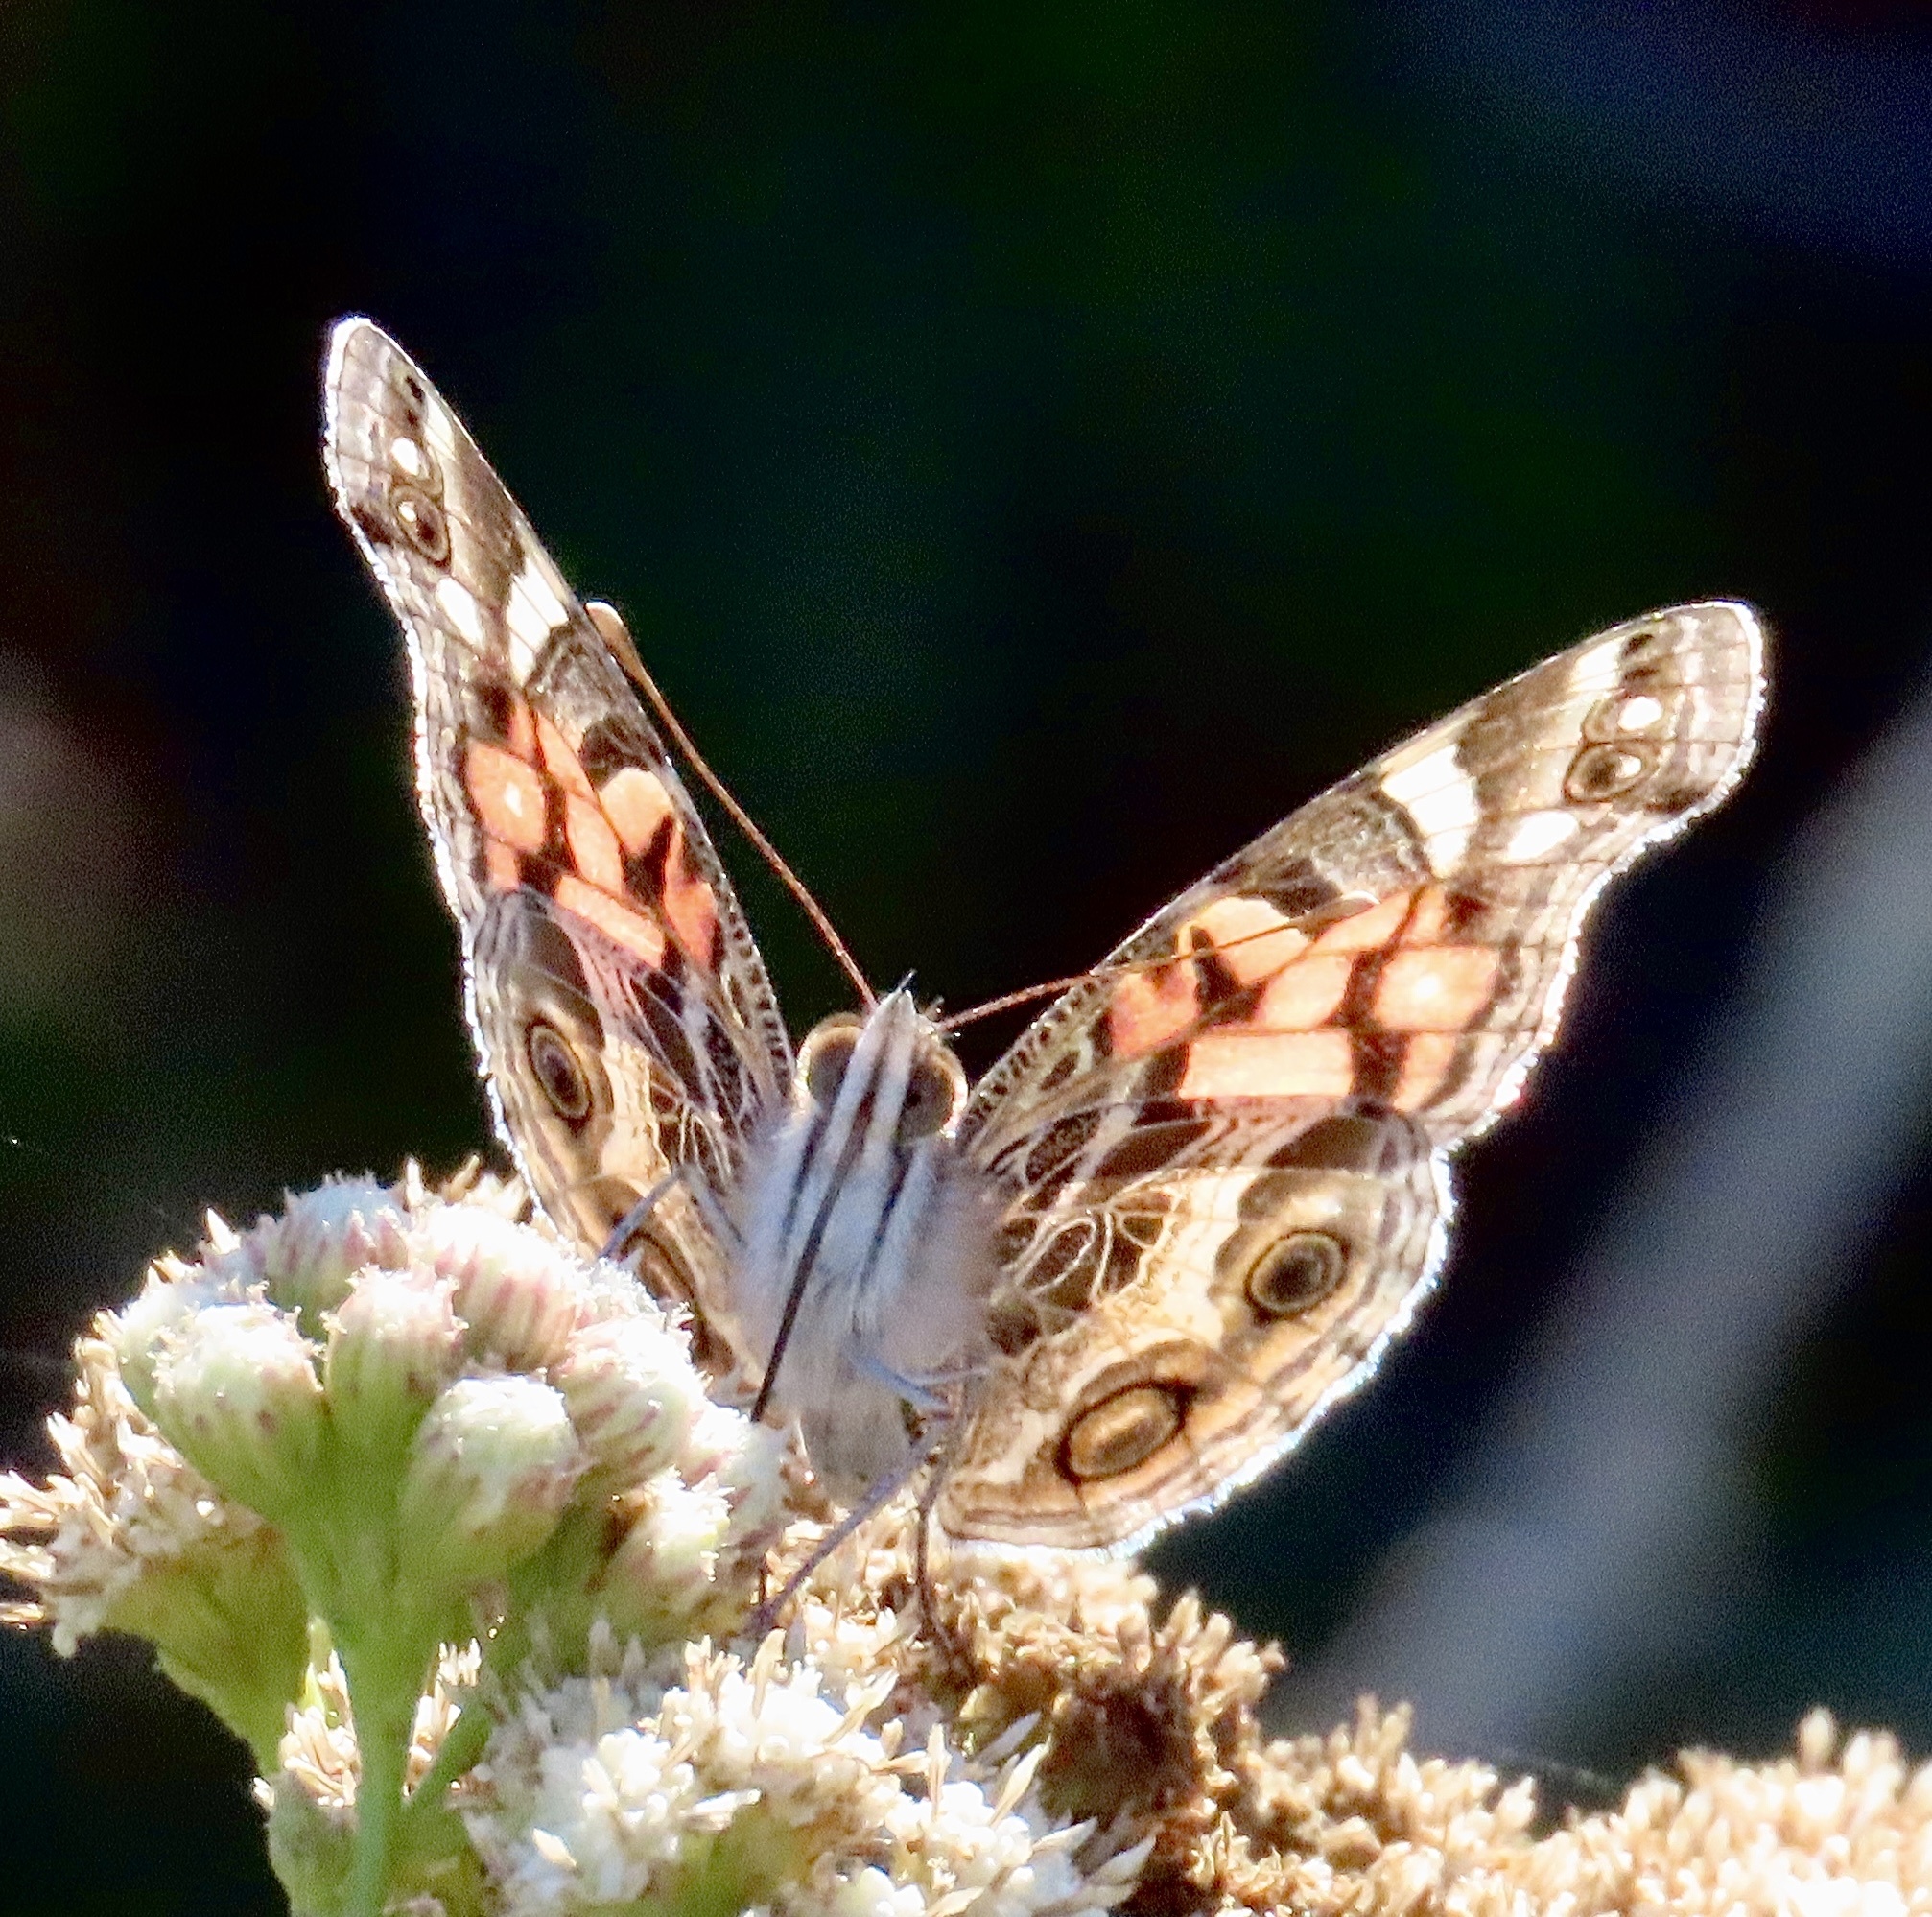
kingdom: Animalia
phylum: Arthropoda
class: Insecta
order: Lepidoptera
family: Nymphalidae
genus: Vanessa
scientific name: Vanessa virginiensis
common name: American lady
